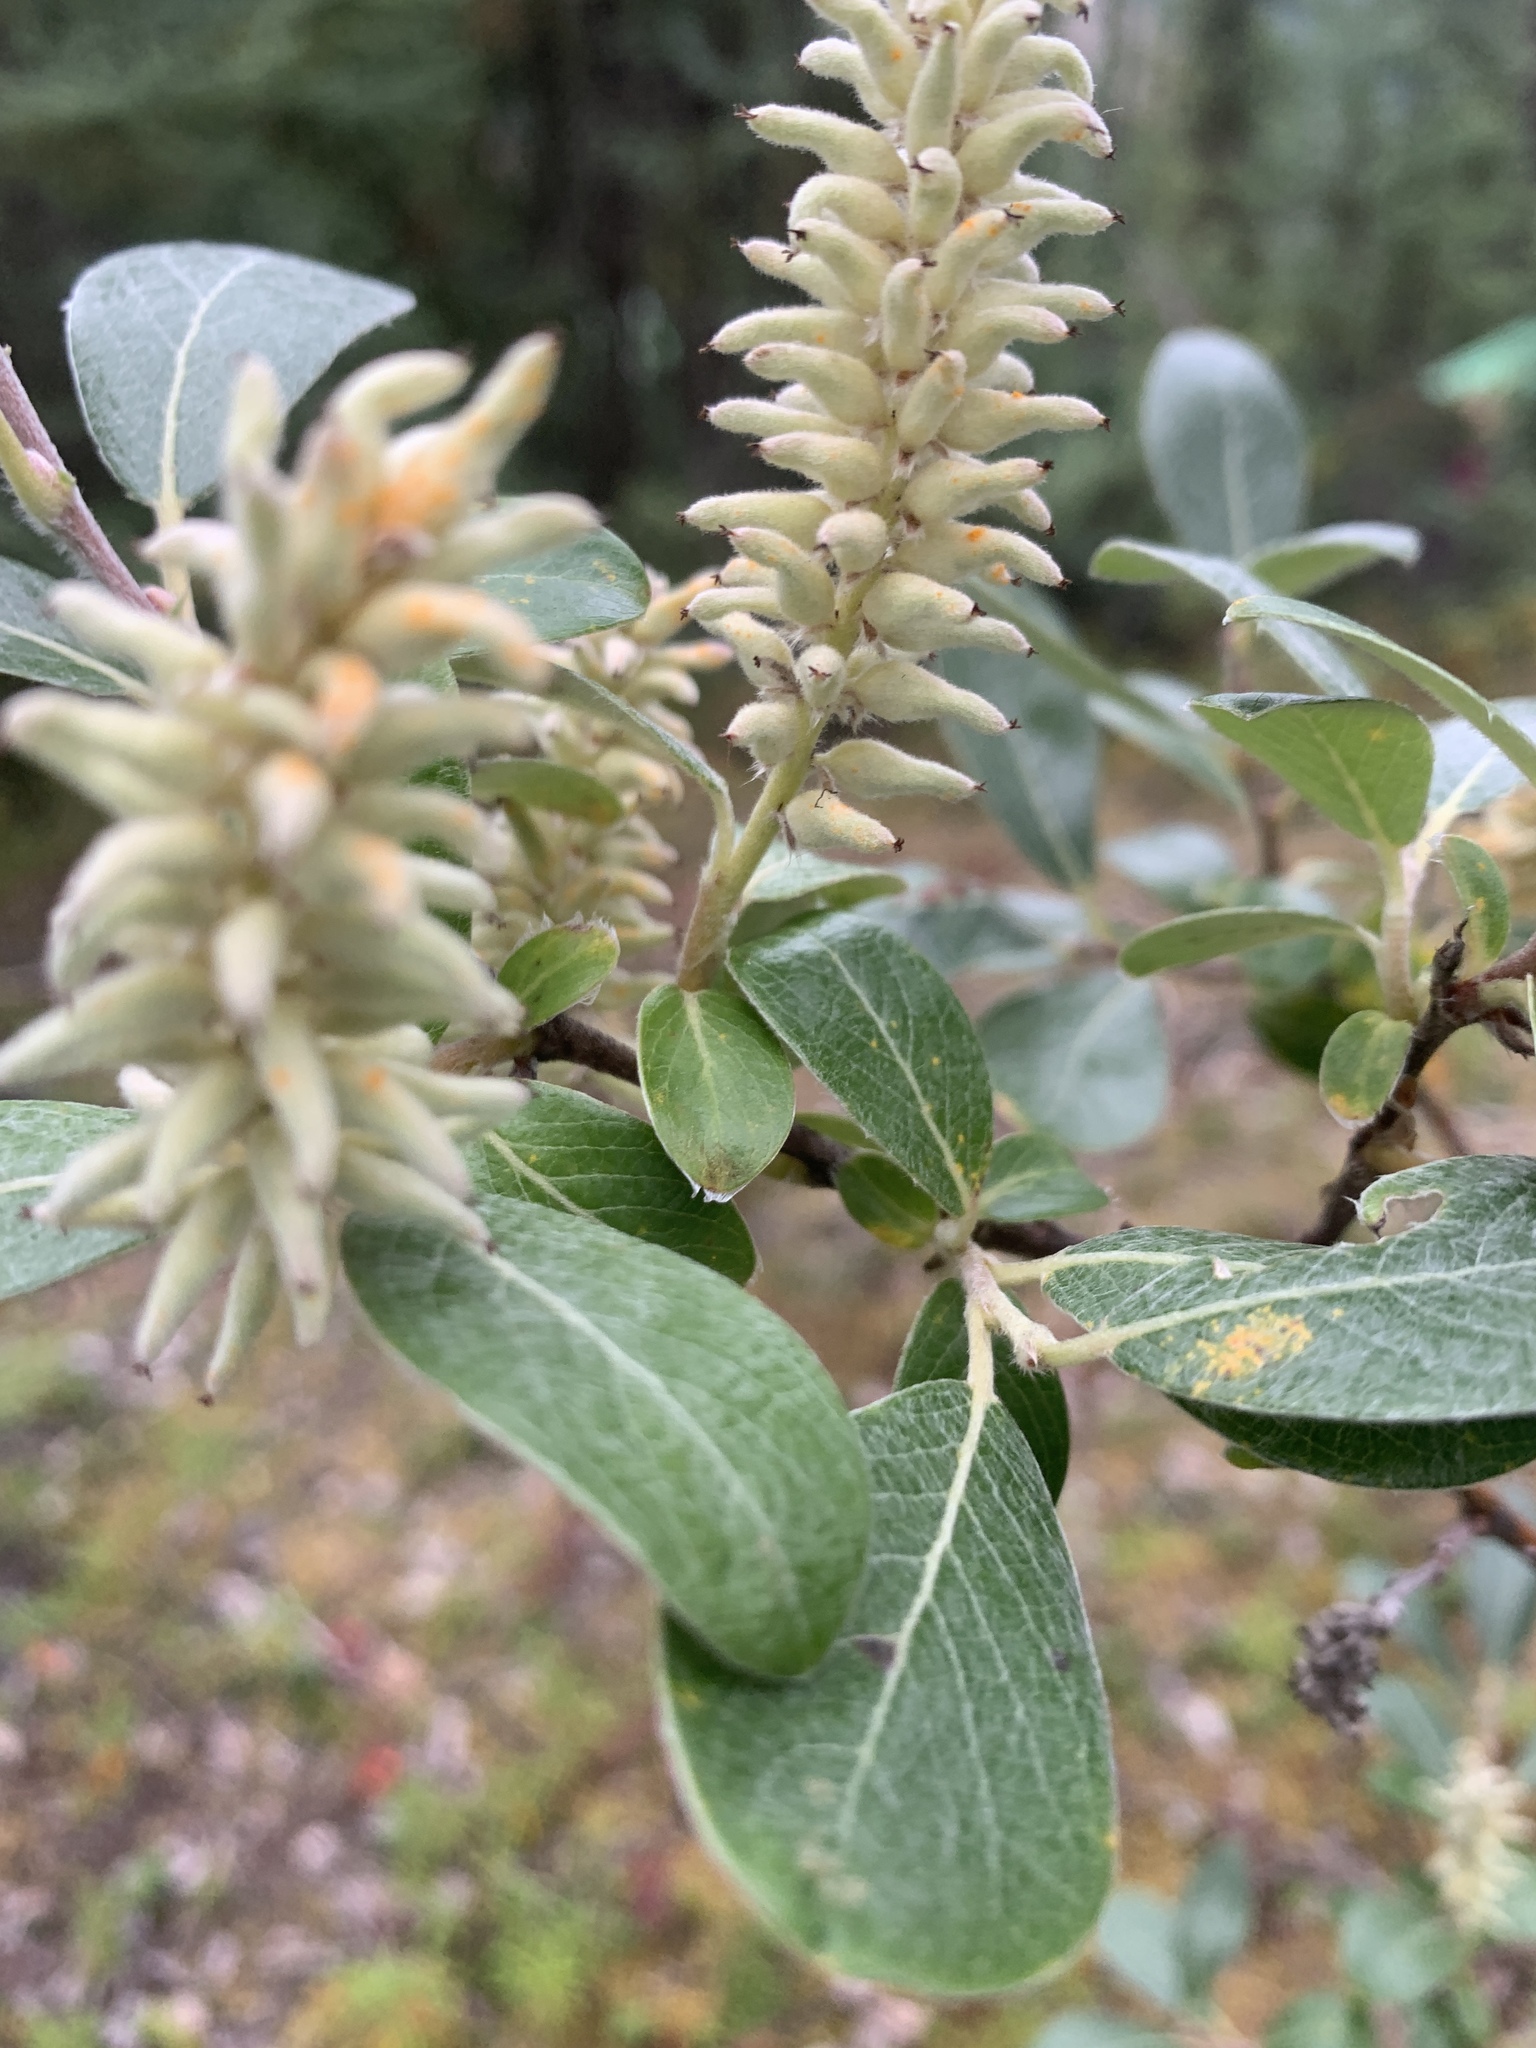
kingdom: Plantae
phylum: Tracheophyta
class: Magnoliopsida
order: Malpighiales
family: Salicaceae
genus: Salix
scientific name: Salix glauca
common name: Glaucous willow
